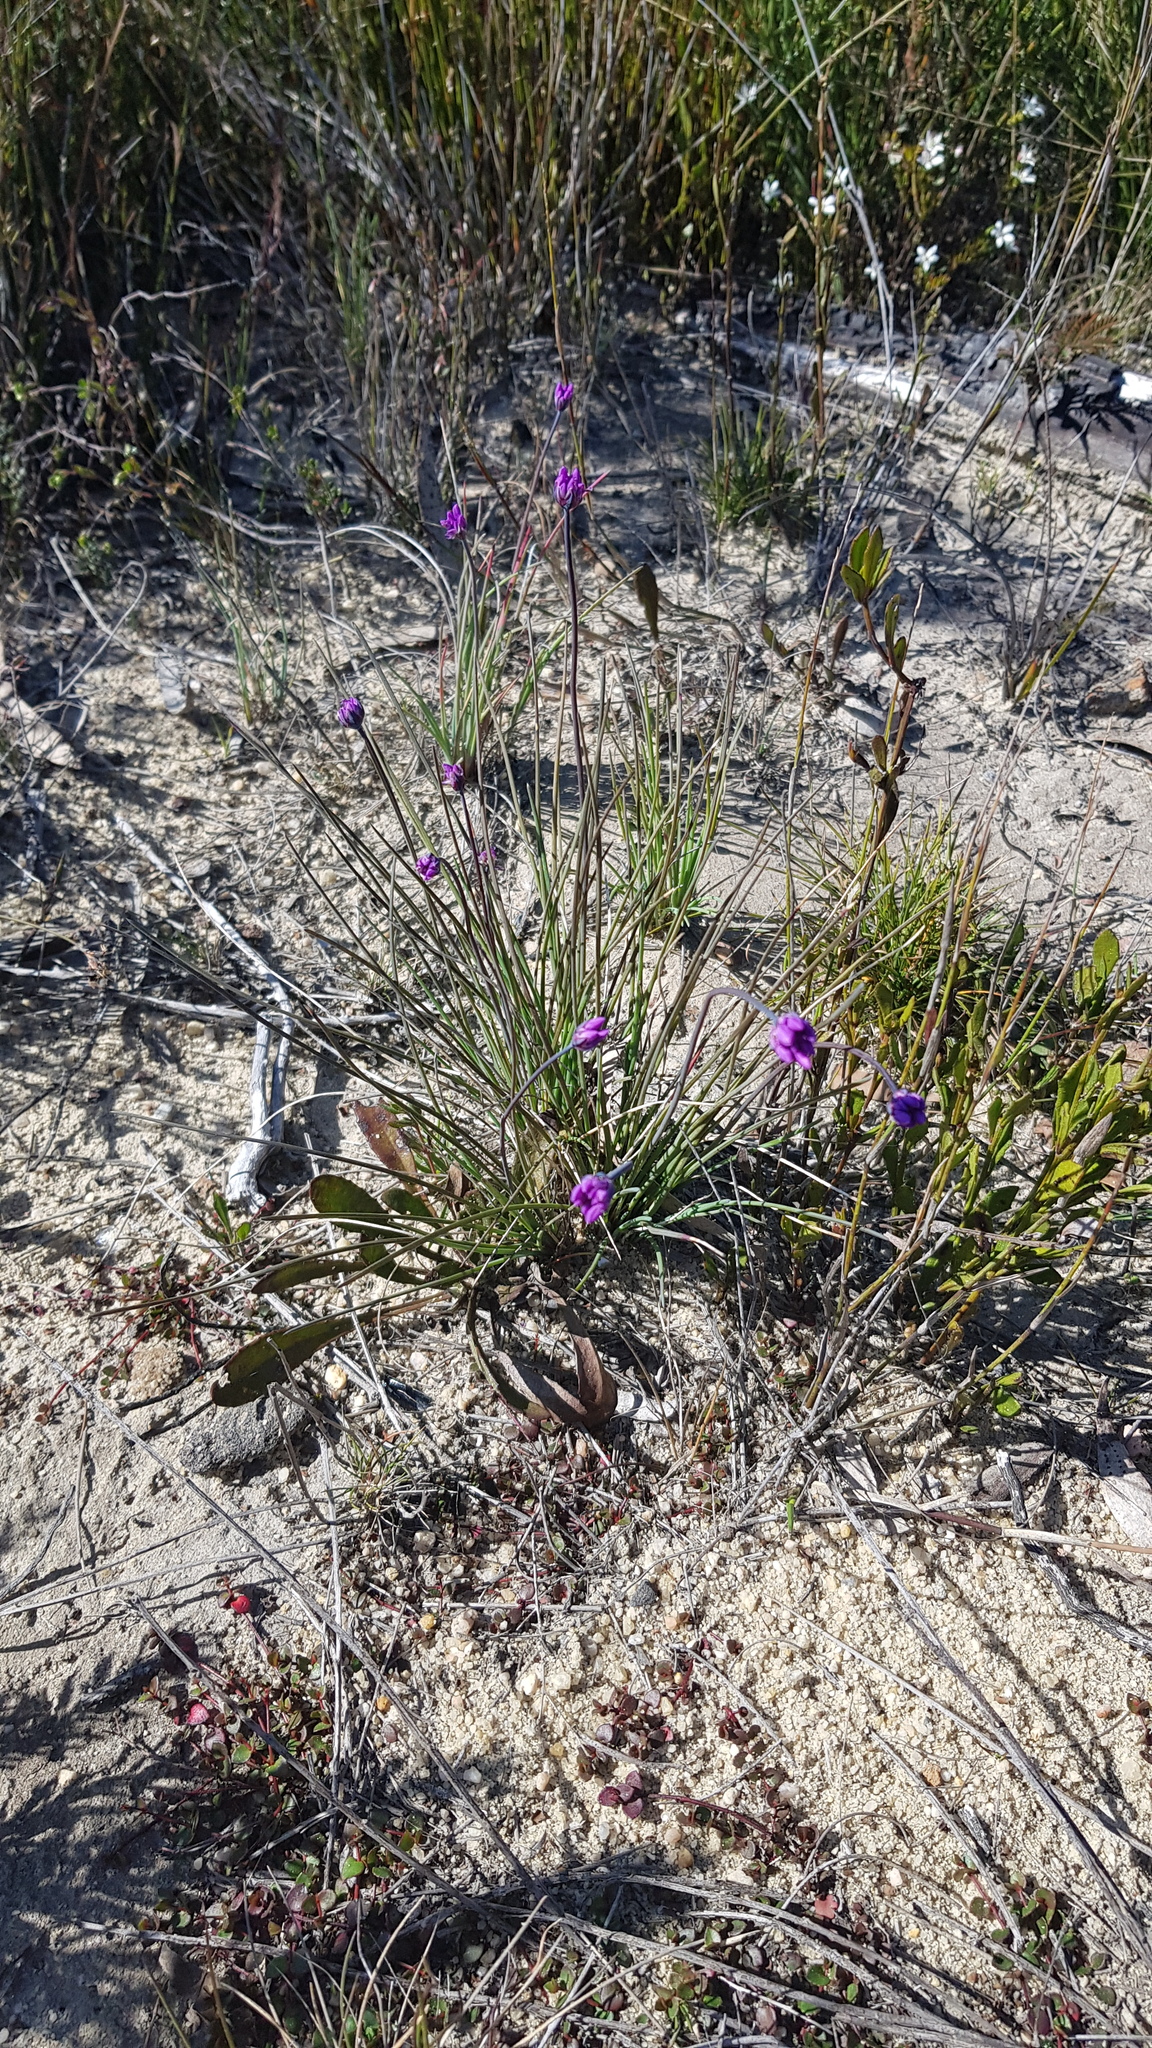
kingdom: Plantae
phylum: Tracheophyta
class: Liliopsida
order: Asparagales
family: Asparagaceae
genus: Sowerbaea
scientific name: Sowerbaea juncea
